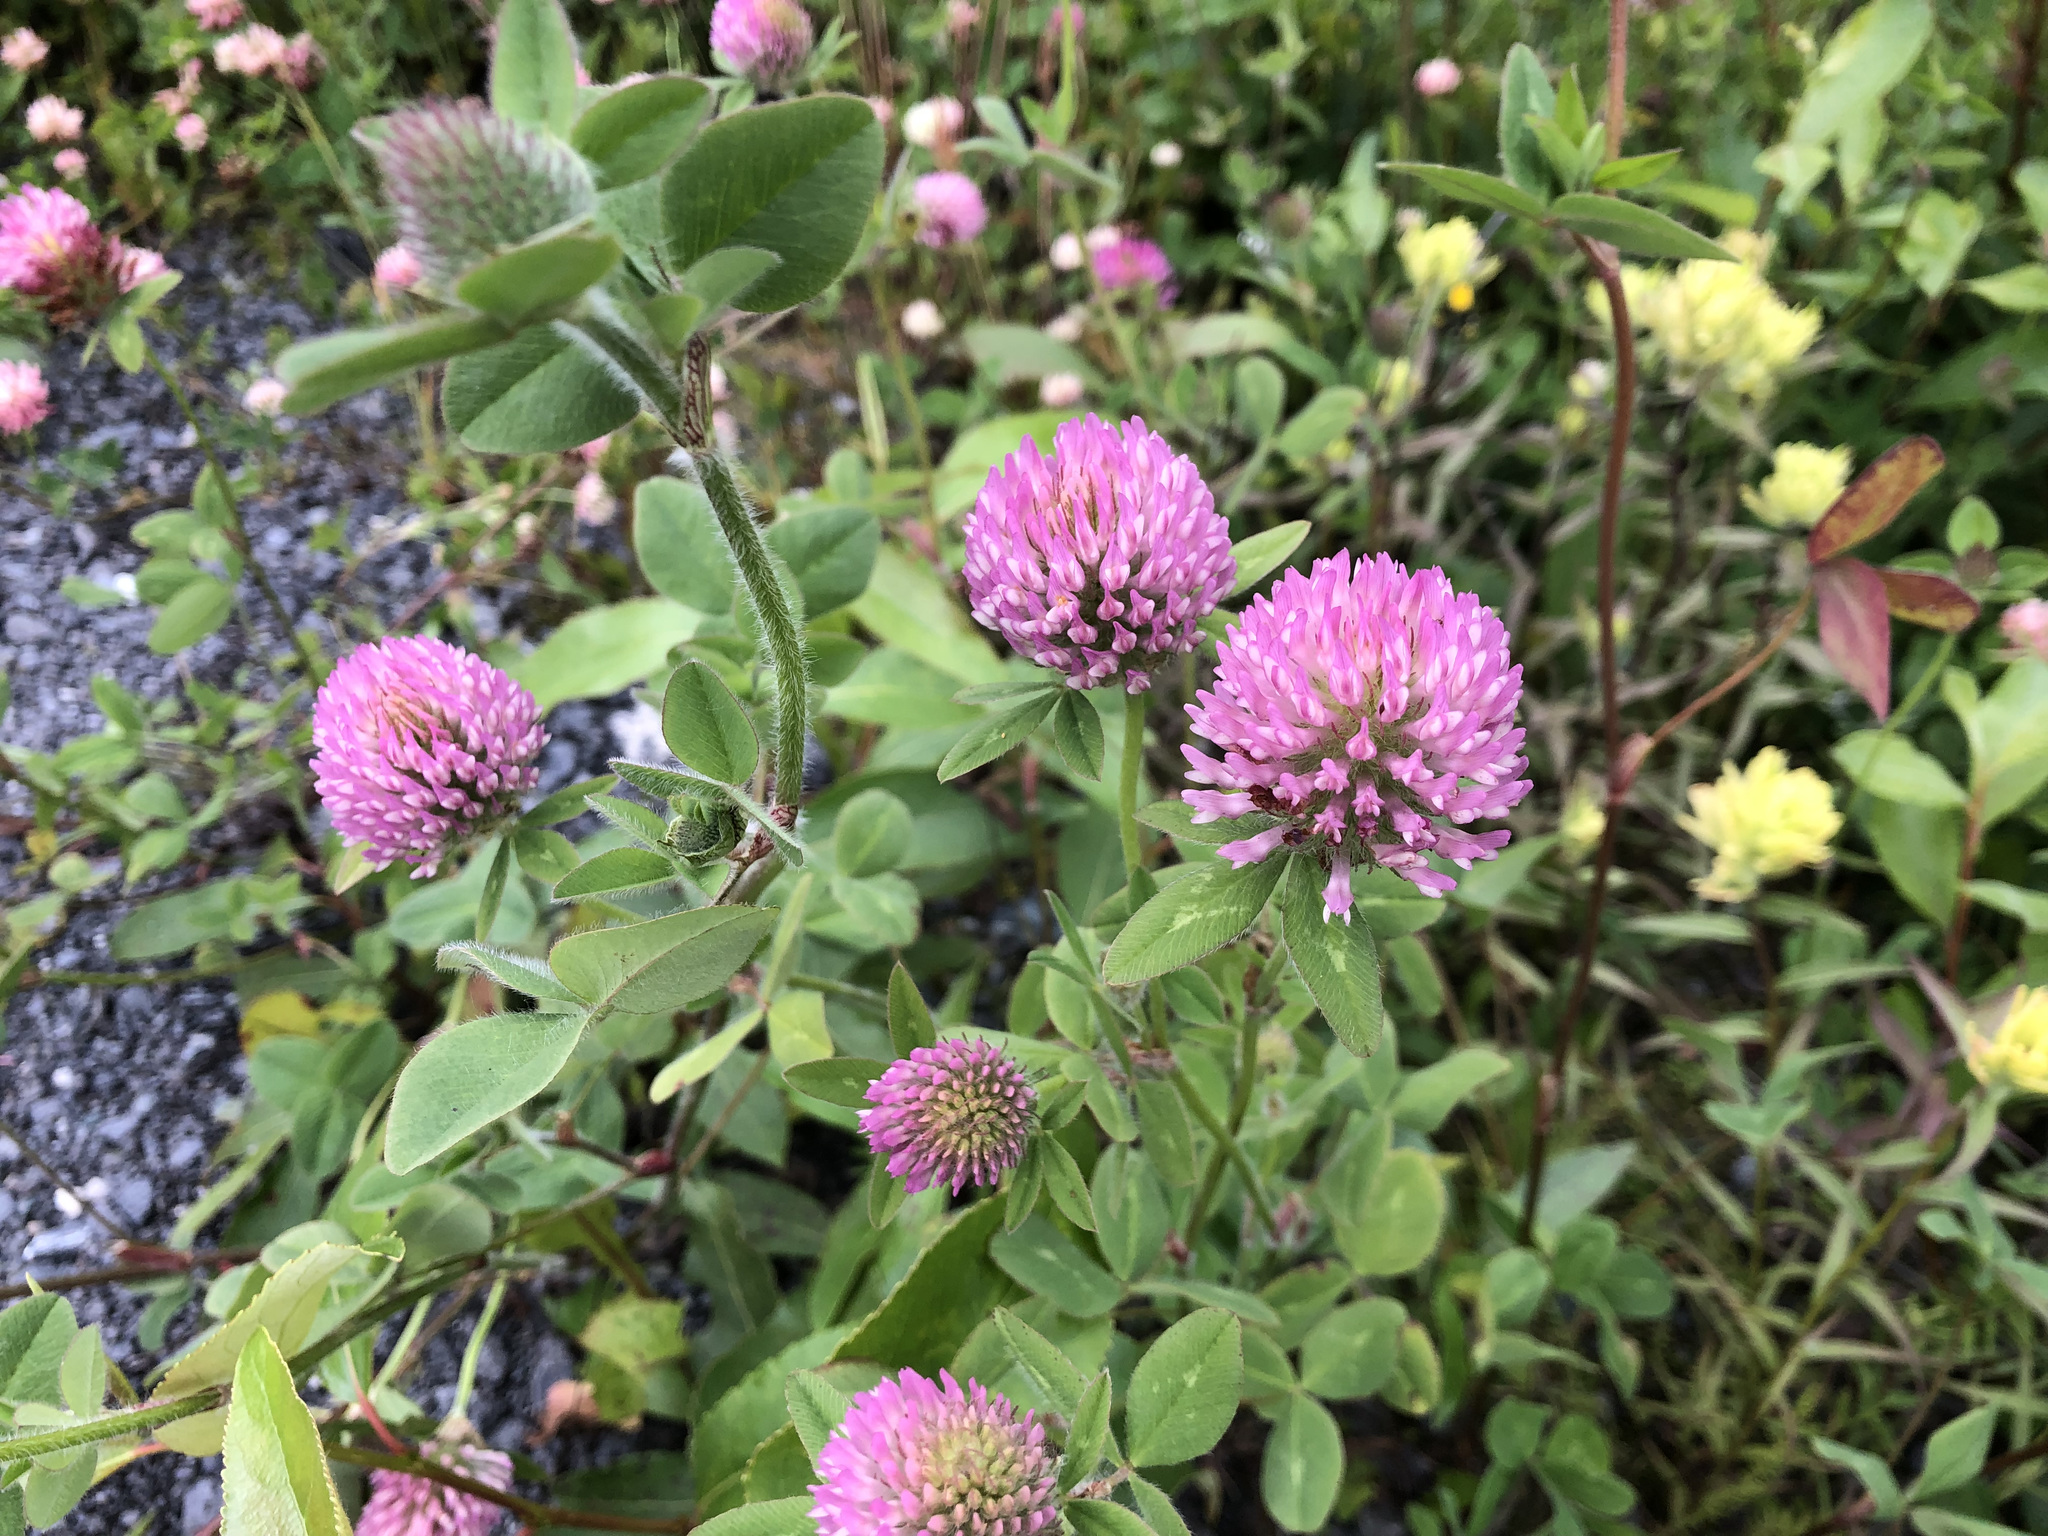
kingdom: Plantae
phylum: Tracheophyta
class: Magnoliopsida
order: Fabales
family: Fabaceae
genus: Trifolium
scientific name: Trifolium pratense
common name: Red clover
